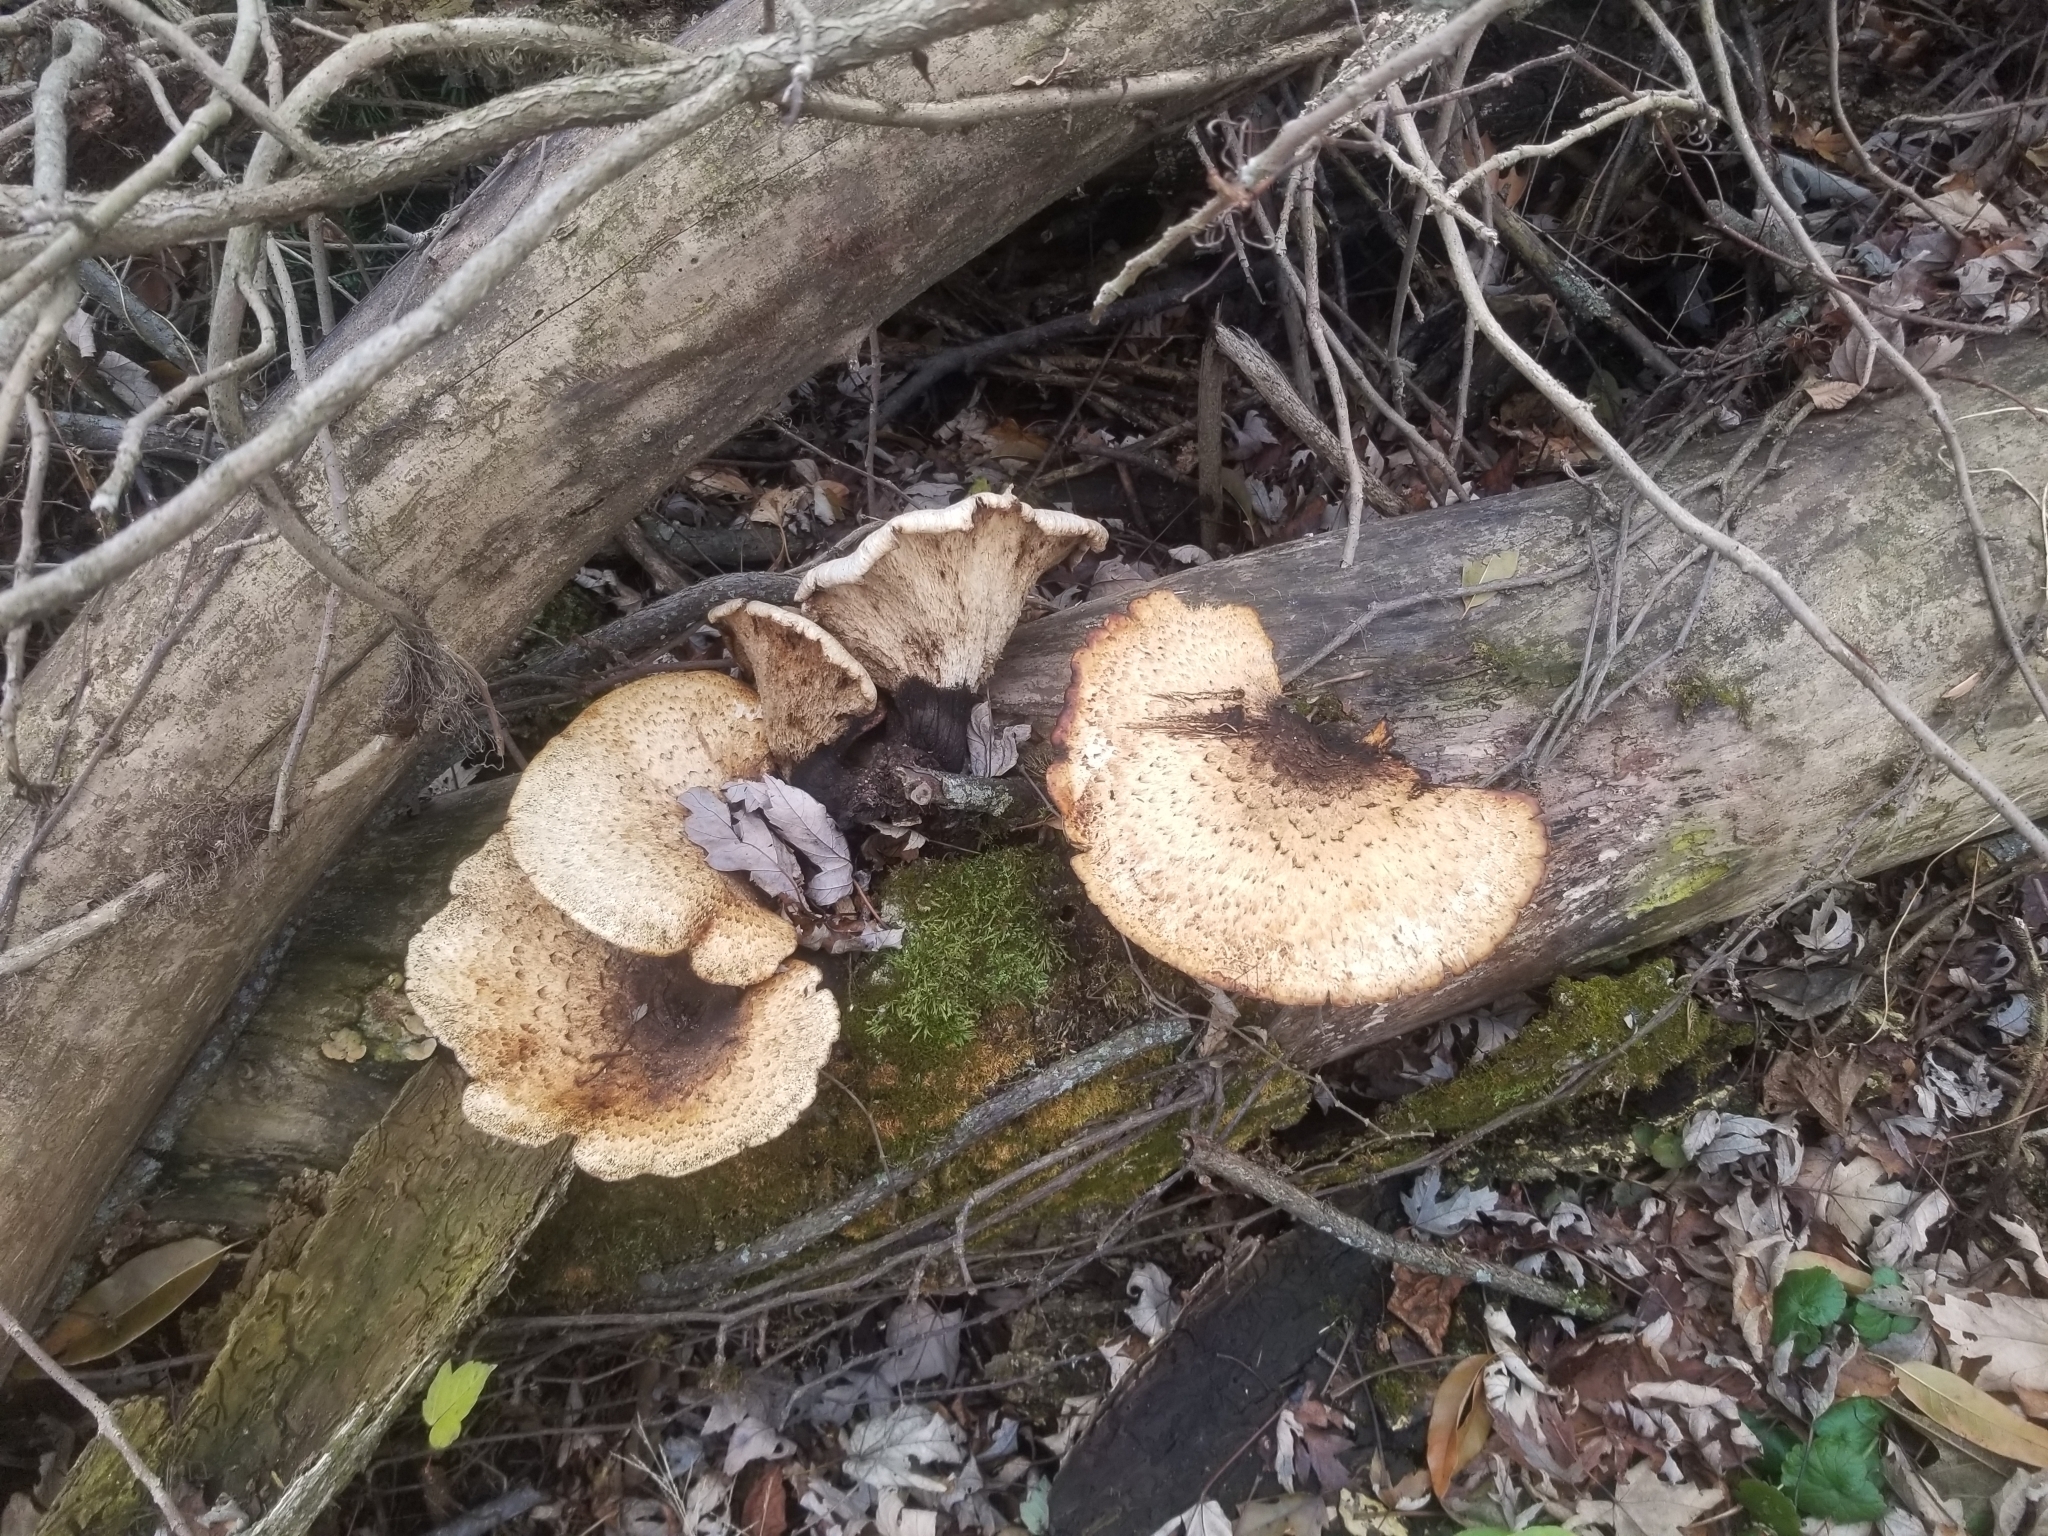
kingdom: Fungi
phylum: Basidiomycota
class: Agaricomycetes
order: Polyporales
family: Polyporaceae
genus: Cerioporus
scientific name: Cerioporus squamosus
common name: Dryad's saddle
